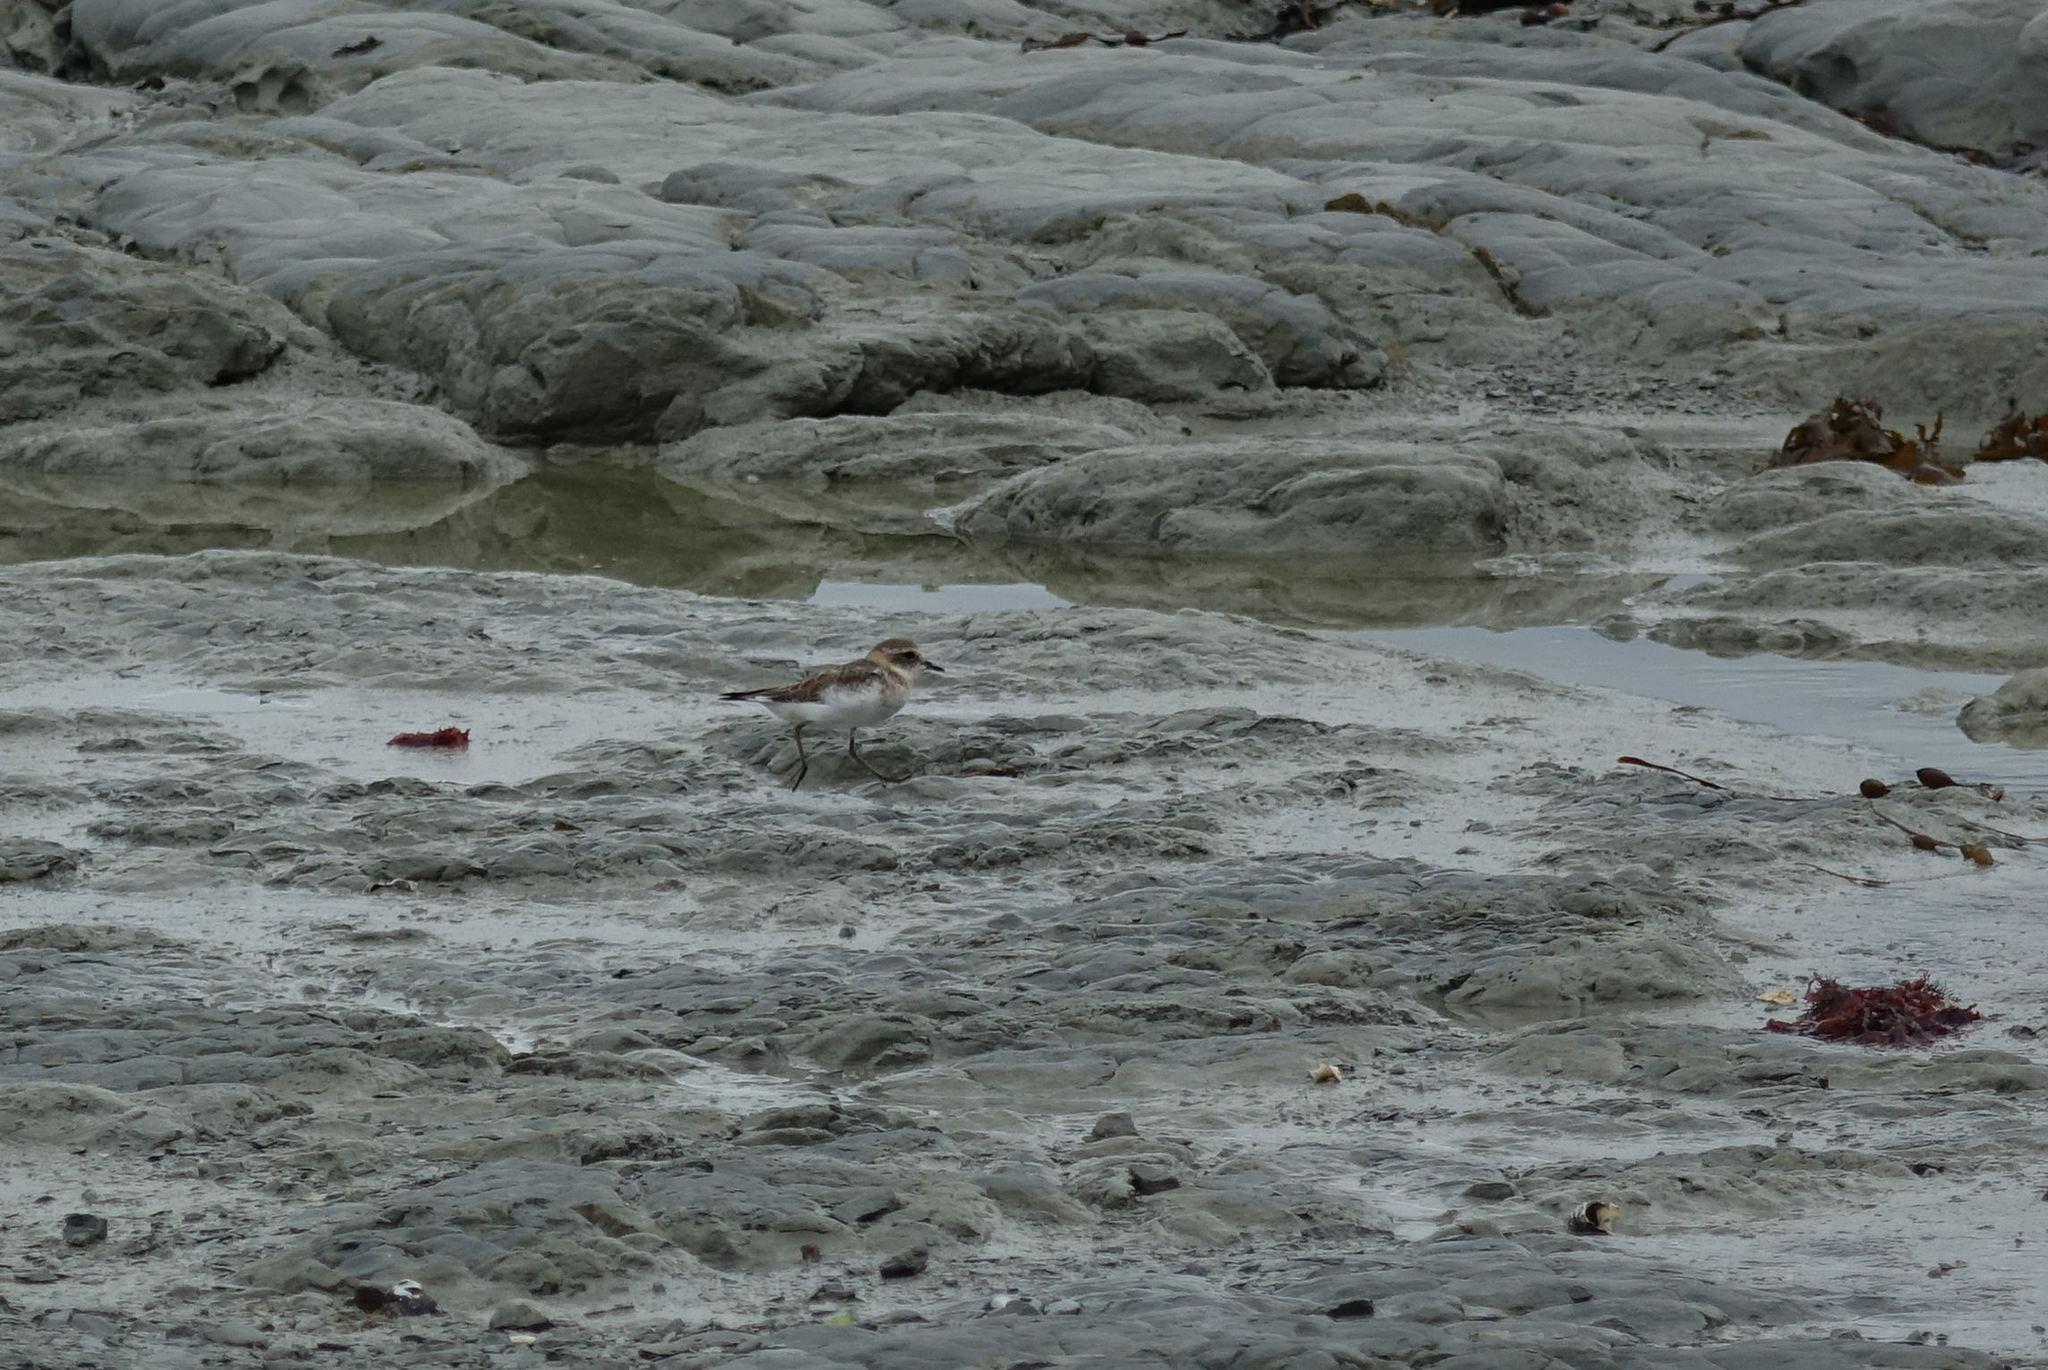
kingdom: Animalia
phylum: Chordata
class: Aves
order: Charadriiformes
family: Charadriidae
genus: Anarhynchus
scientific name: Anarhynchus
